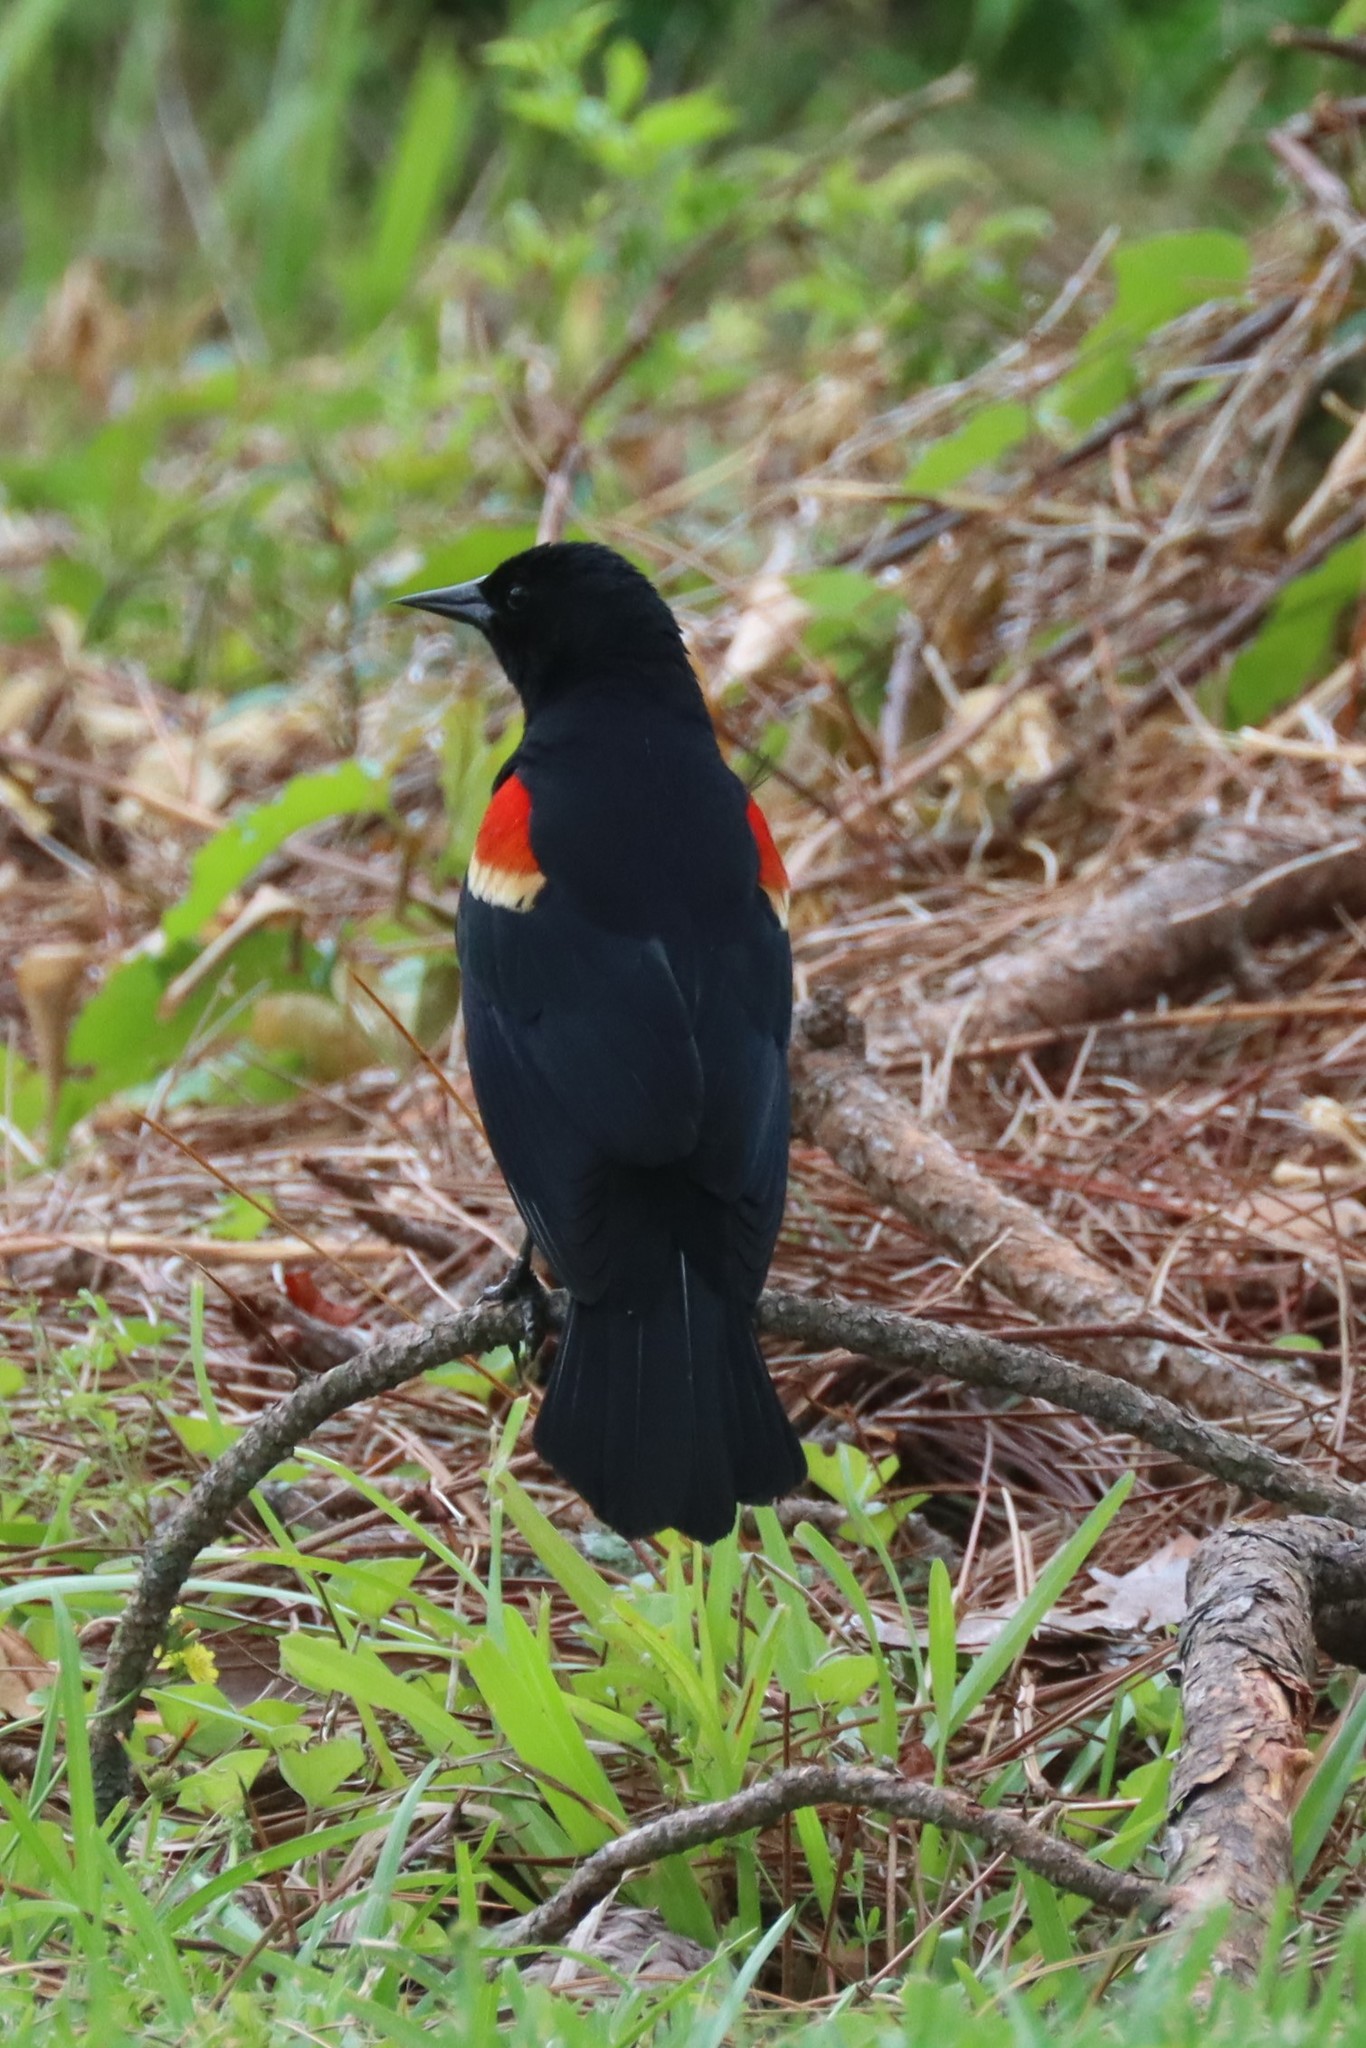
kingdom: Animalia
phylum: Chordata
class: Aves
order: Passeriformes
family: Icteridae
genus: Agelaius
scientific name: Agelaius phoeniceus
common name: Red-winged blackbird
